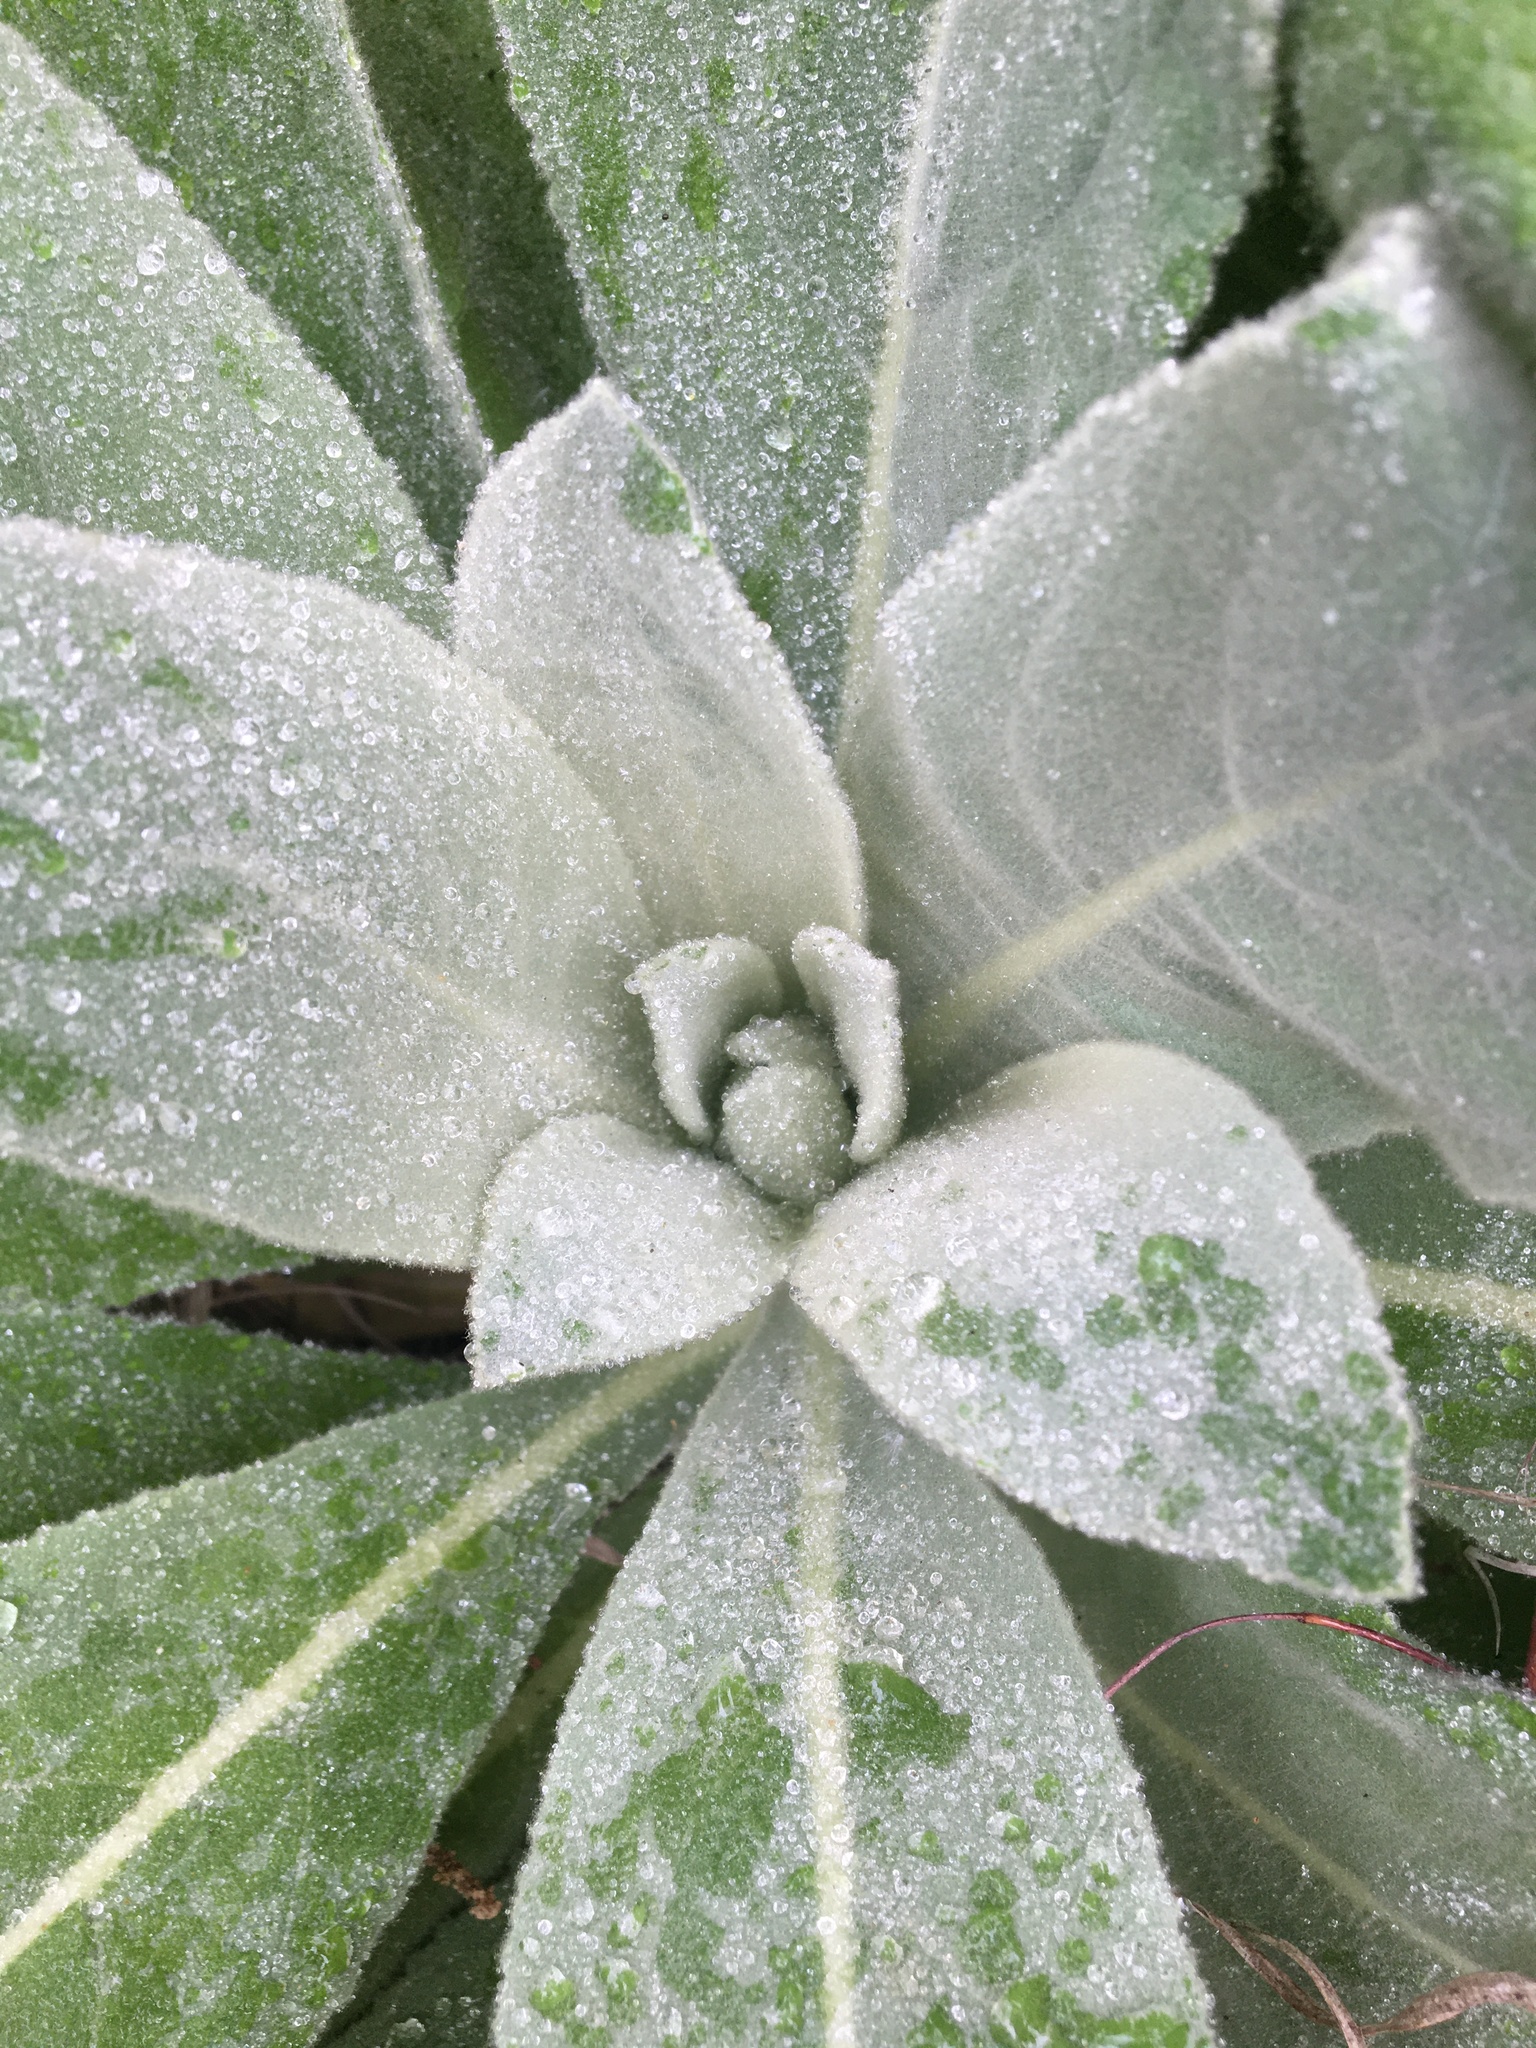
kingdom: Plantae
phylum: Tracheophyta
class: Magnoliopsida
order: Lamiales
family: Scrophulariaceae
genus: Verbascum
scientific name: Verbascum thapsus
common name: Common mullein
